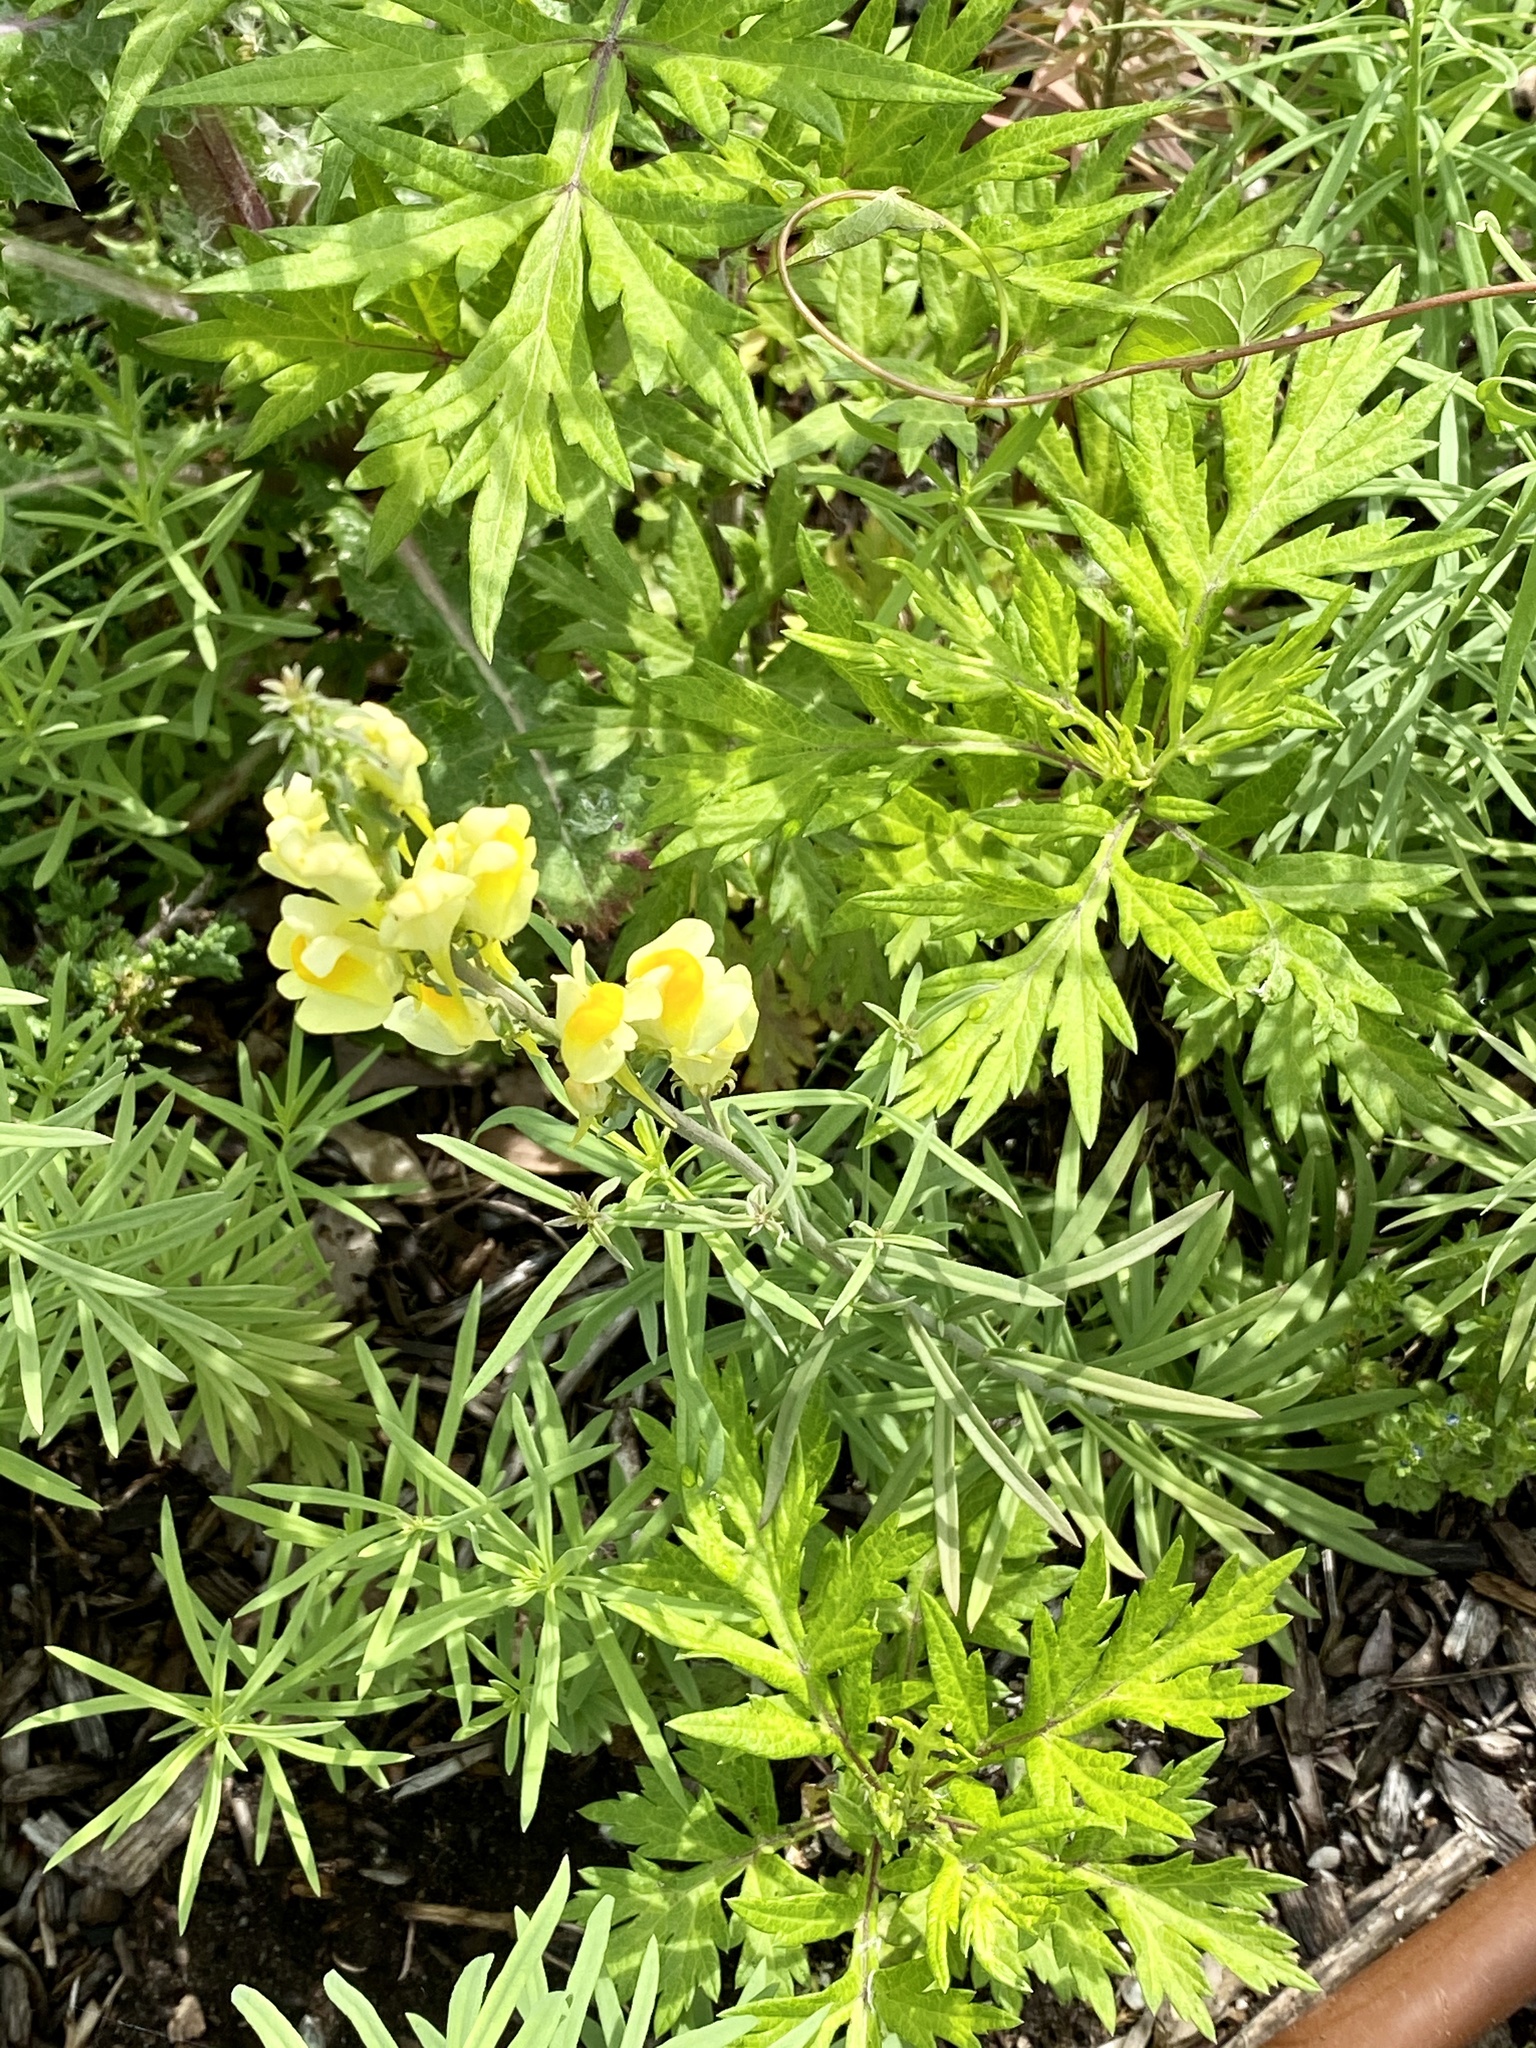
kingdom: Plantae
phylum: Tracheophyta
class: Magnoliopsida
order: Lamiales
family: Plantaginaceae
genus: Linaria
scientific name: Linaria vulgaris
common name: Butter and eggs
